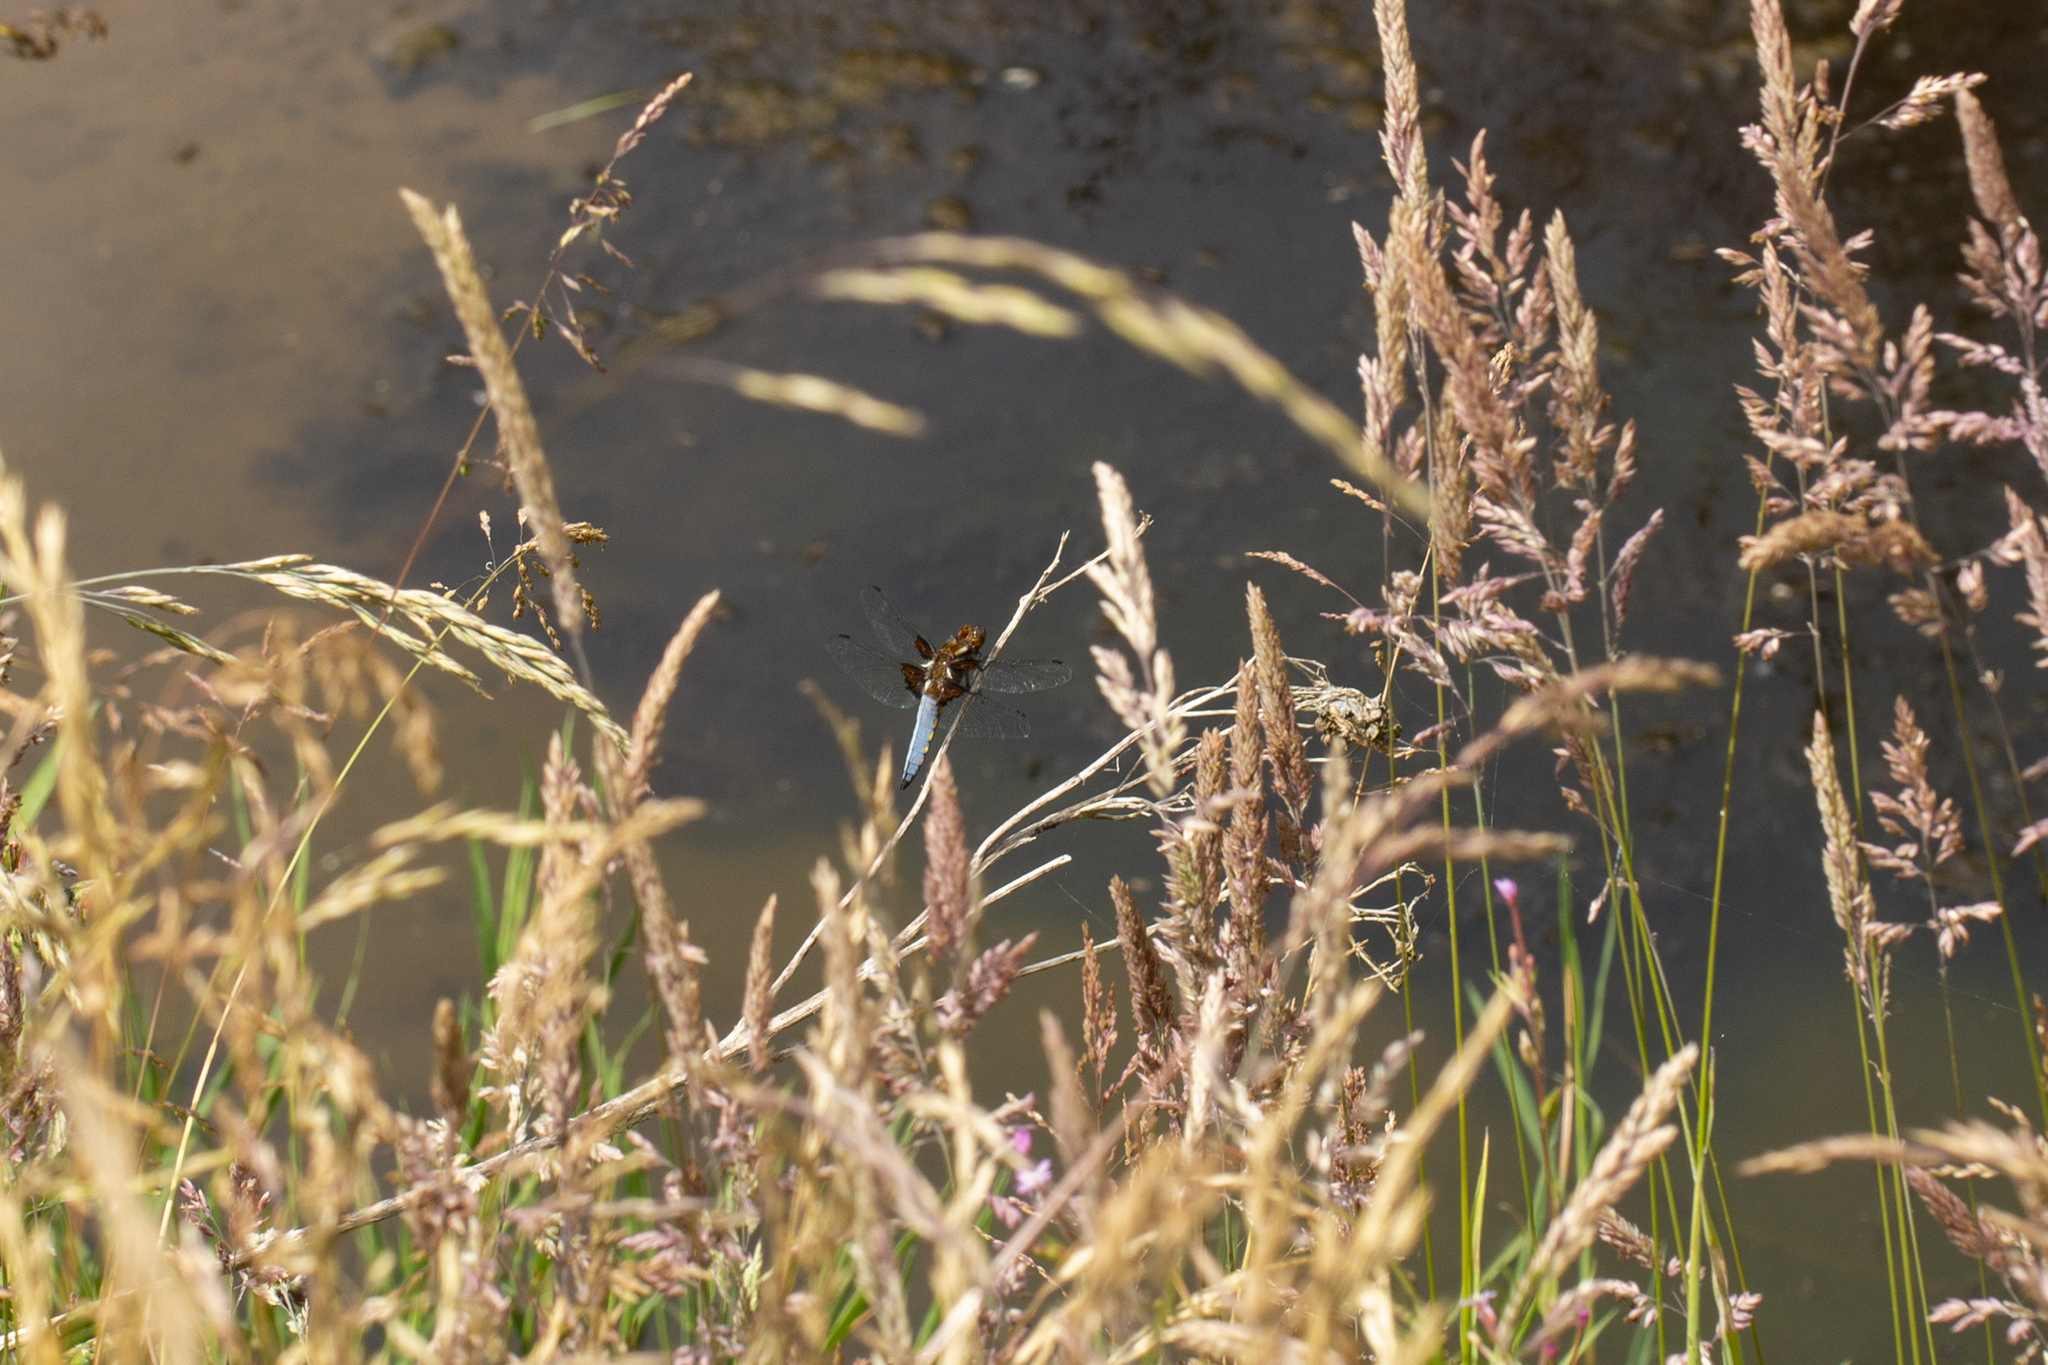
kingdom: Animalia
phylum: Arthropoda
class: Insecta
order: Odonata
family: Libellulidae
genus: Libellula
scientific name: Libellula depressa
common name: Broad-bodied chaser
